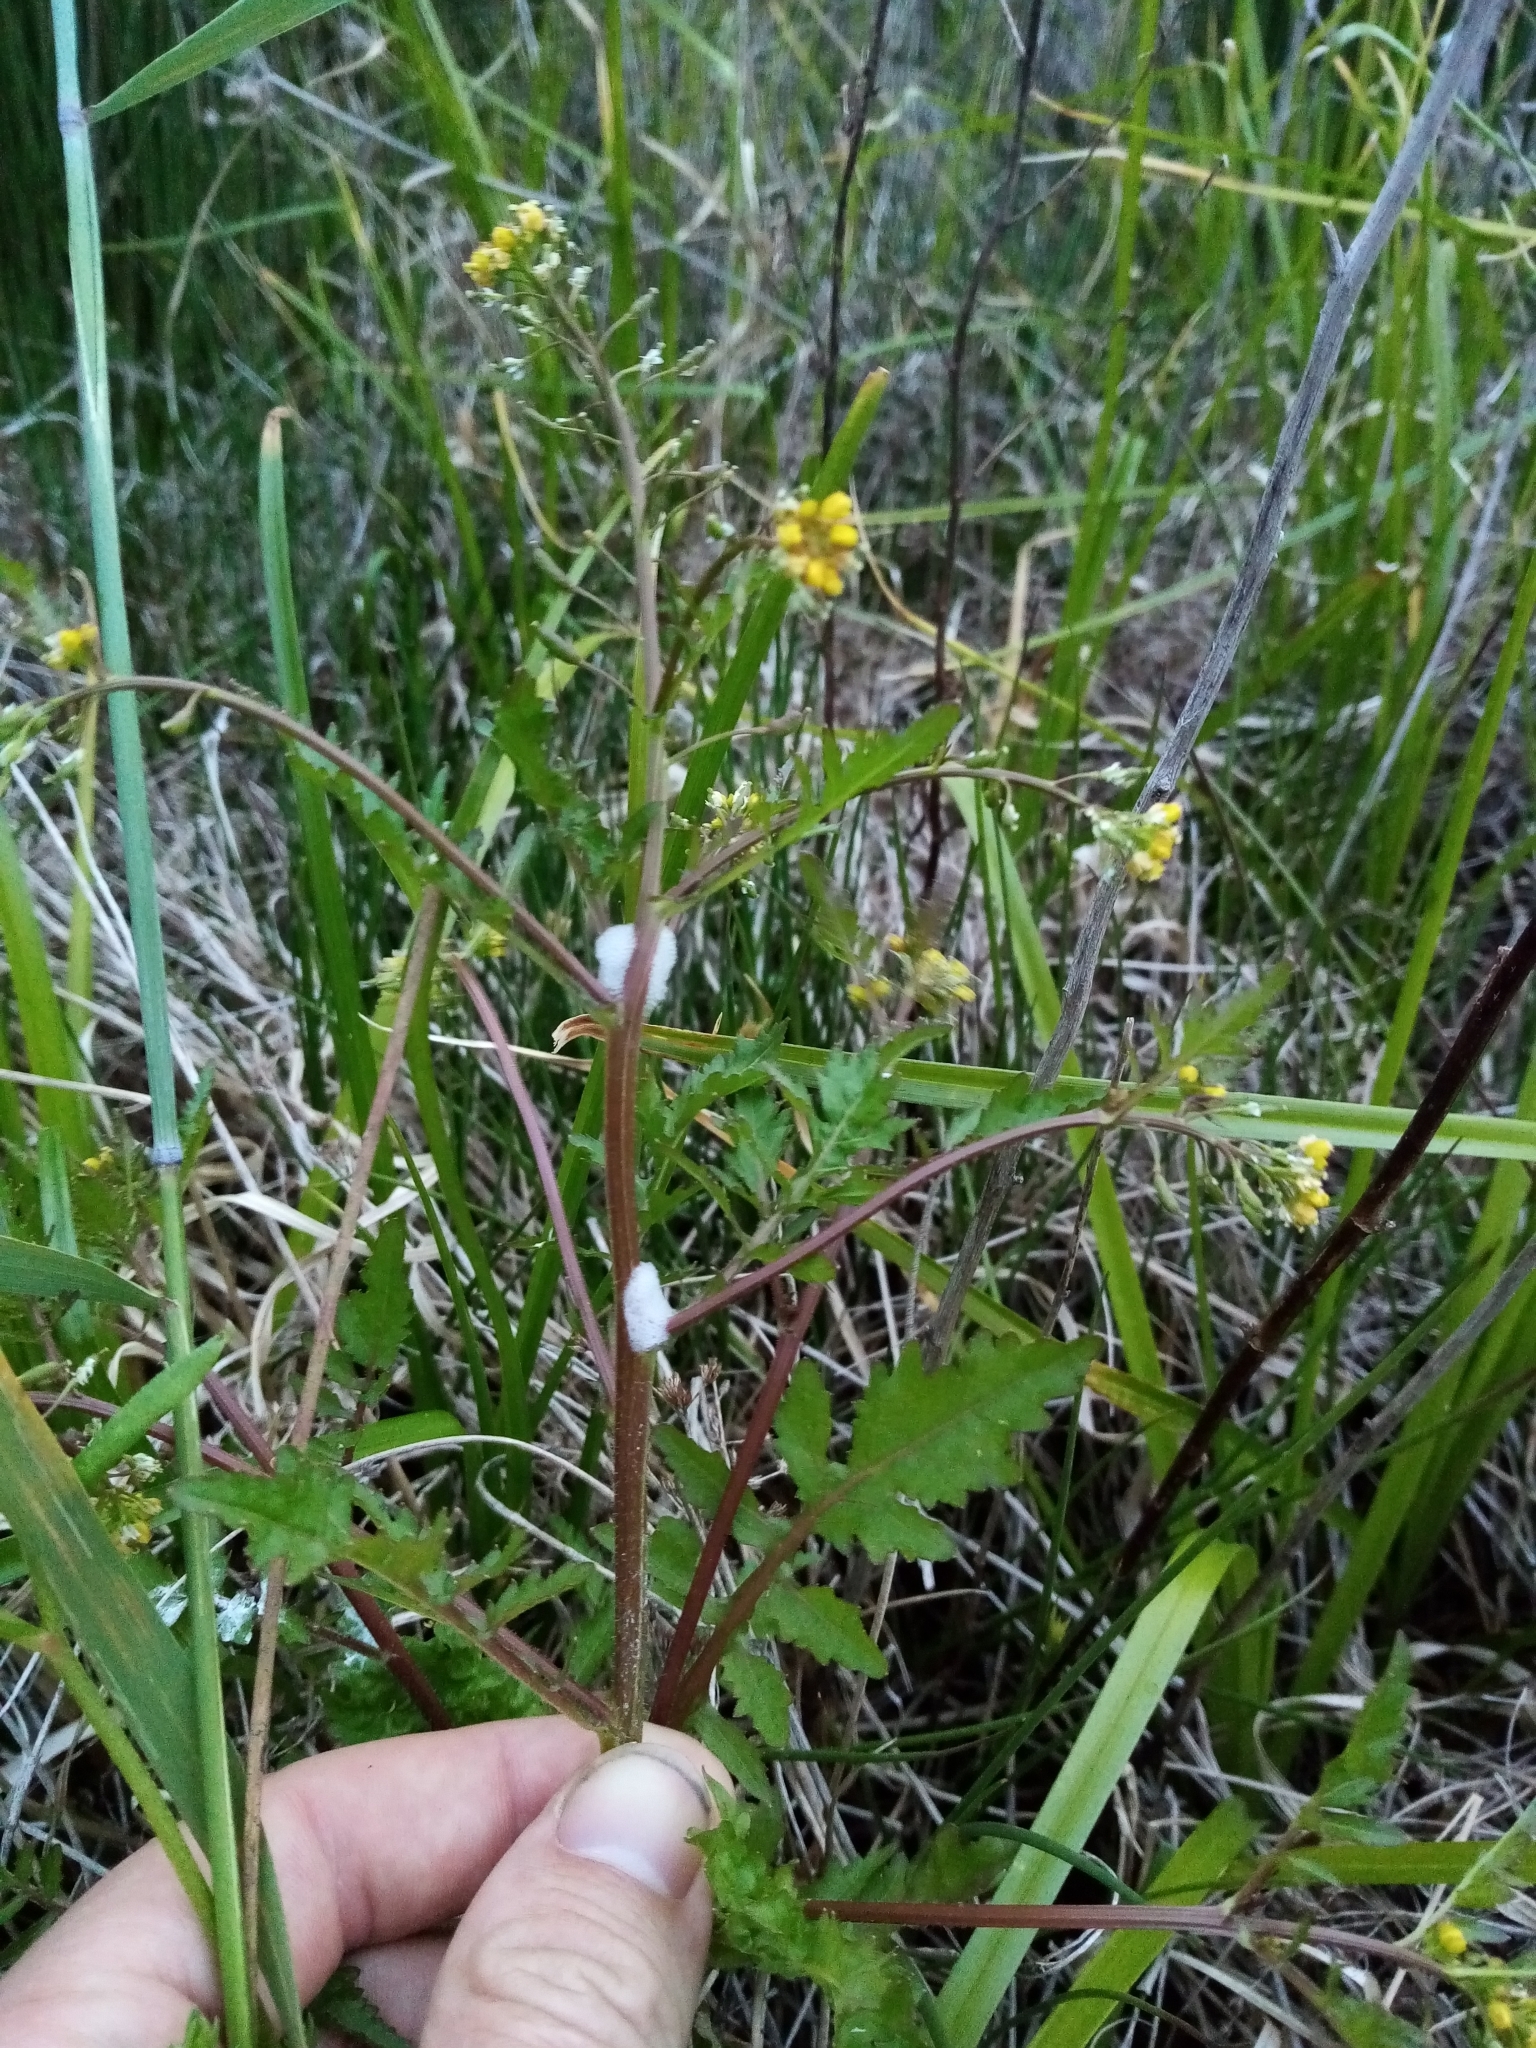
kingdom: Plantae
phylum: Tracheophyta
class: Magnoliopsida
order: Brassicales
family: Brassicaceae
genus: Rorippa
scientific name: Rorippa palustris
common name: Marsh yellow-cress
